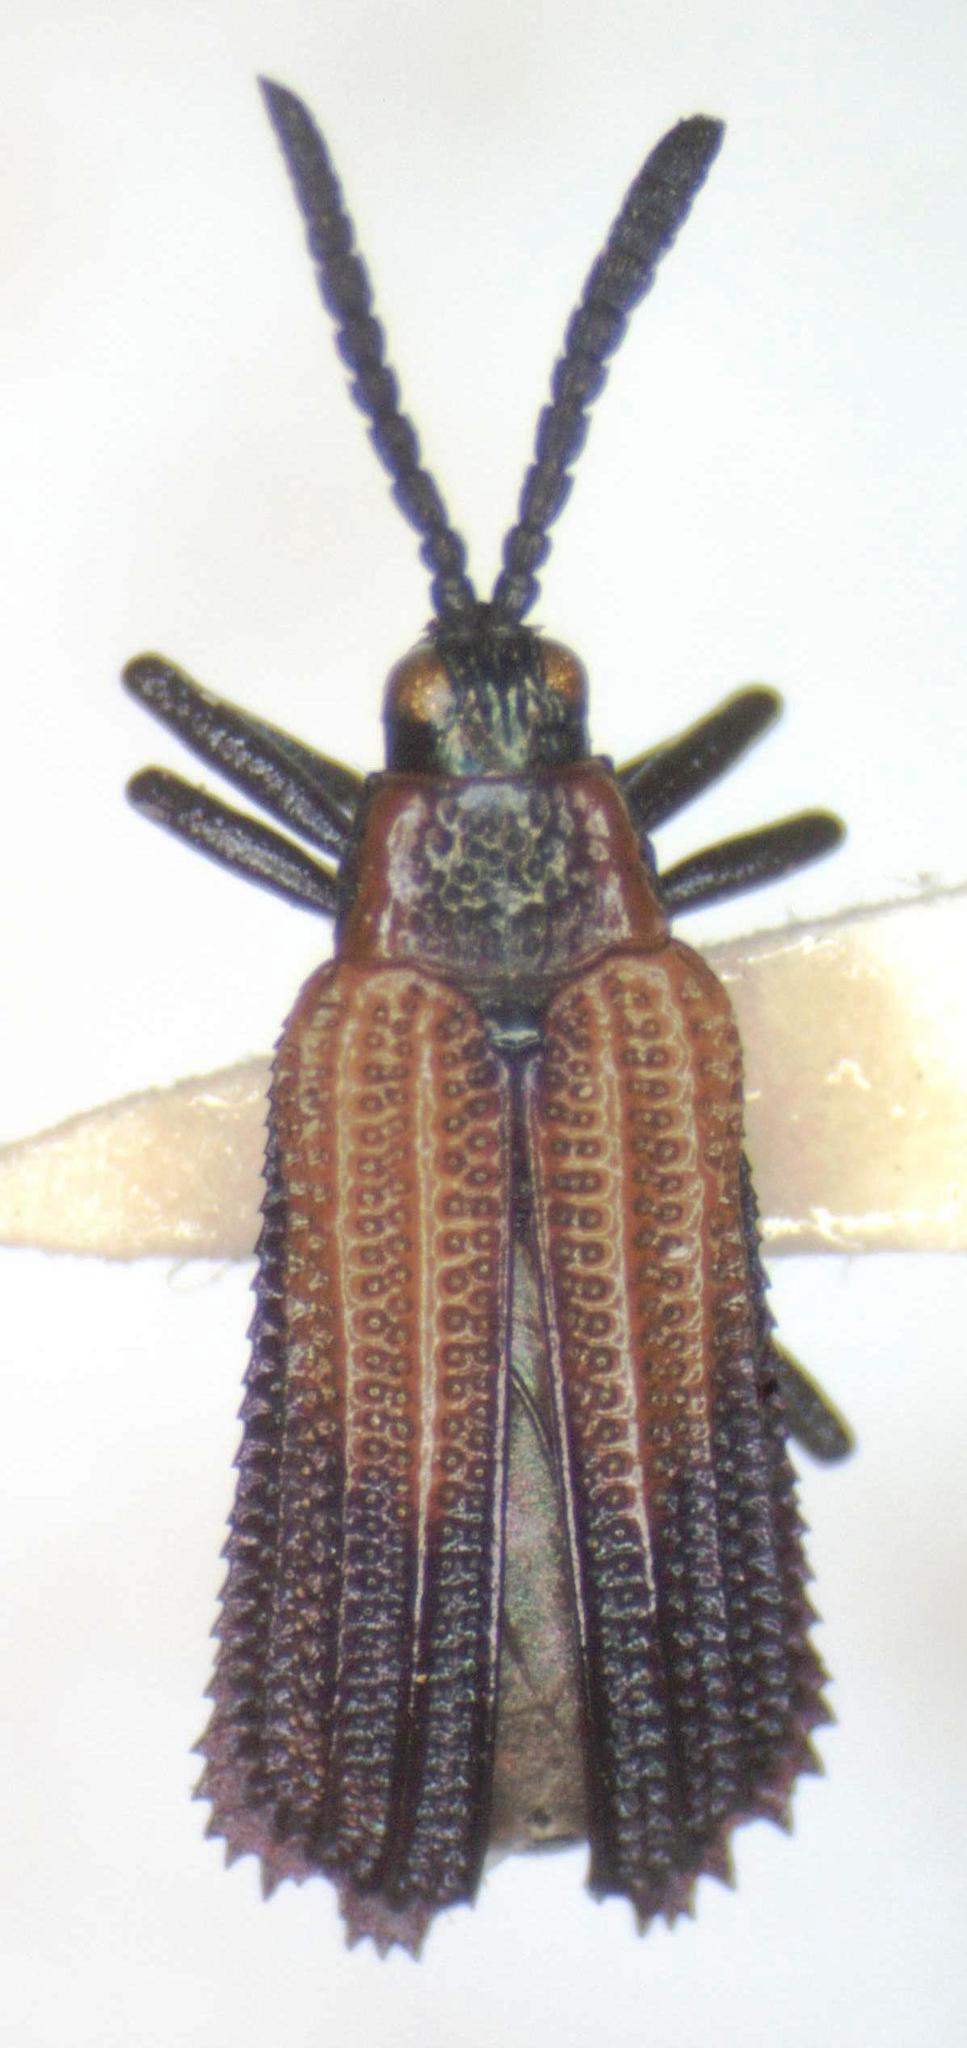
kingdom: Animalia
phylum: Arthropoda
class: Insecta
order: Coleoptera
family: Chrysomelidae
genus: Pentispa
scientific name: Pentispa clarkella
